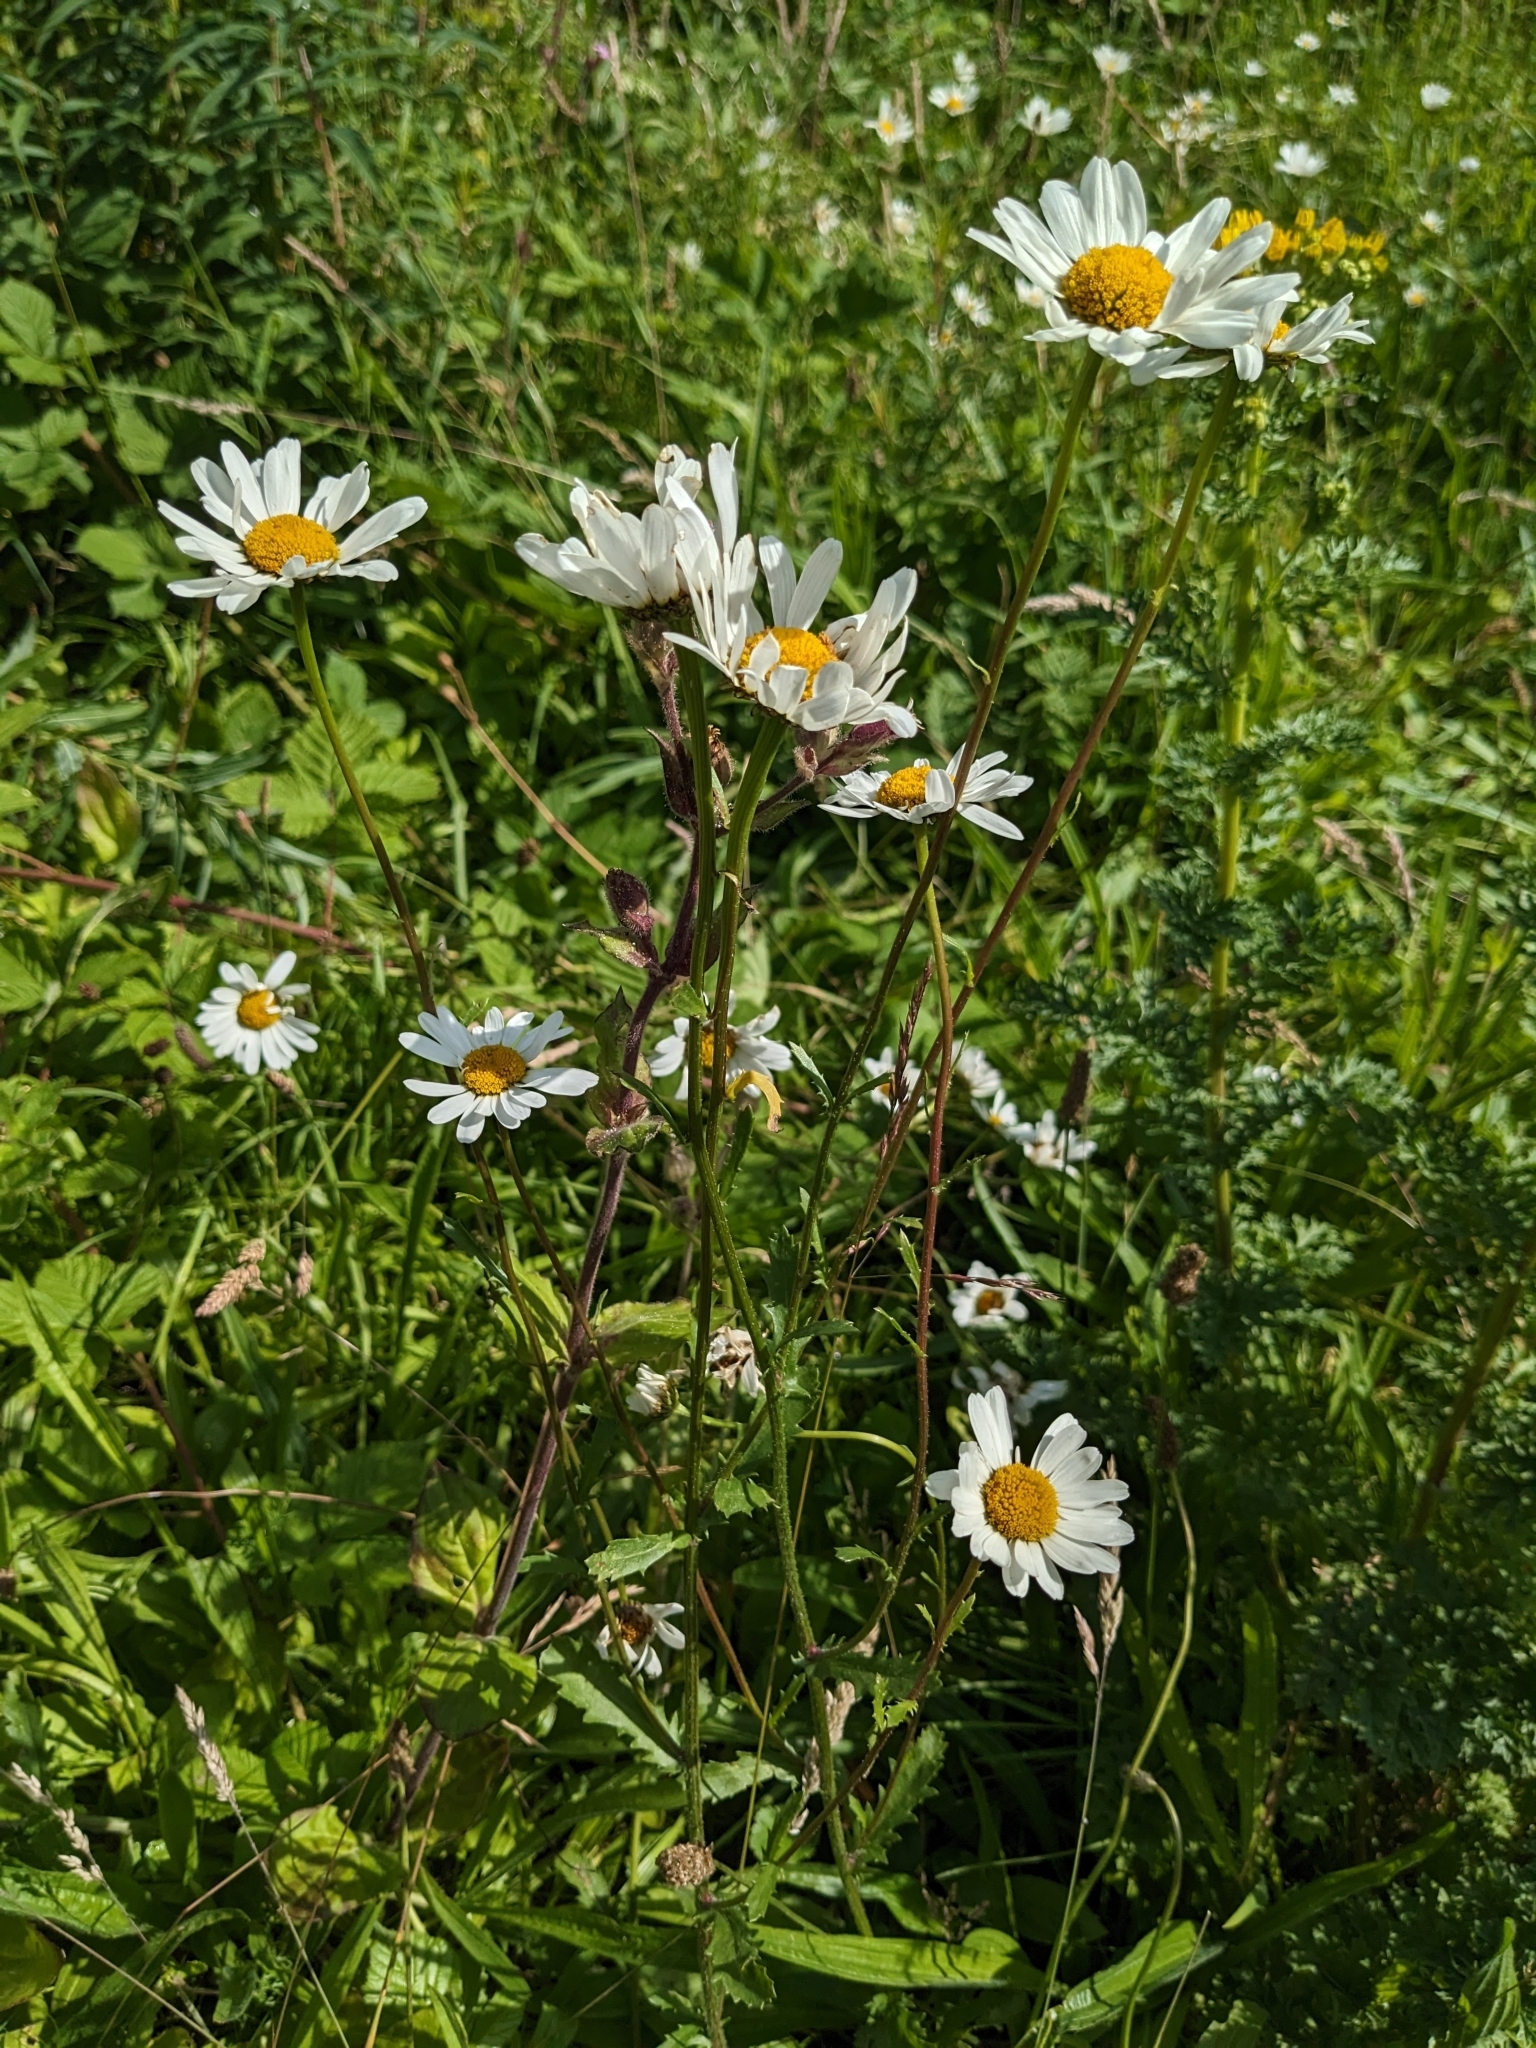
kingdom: Plantae
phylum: Tracheophyta
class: Magnoliopsida
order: Asterales
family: Asteraceae
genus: Leucanthemum
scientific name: Leucanthemum vulgare
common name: Oxeye daisy
